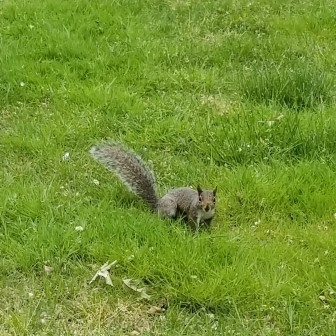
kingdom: Animalia
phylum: Chordata
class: Mammalia
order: Rodentia
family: Sciuridae
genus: Sciurus
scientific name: Sciurus carolinensis
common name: Eastern gray squirrel
